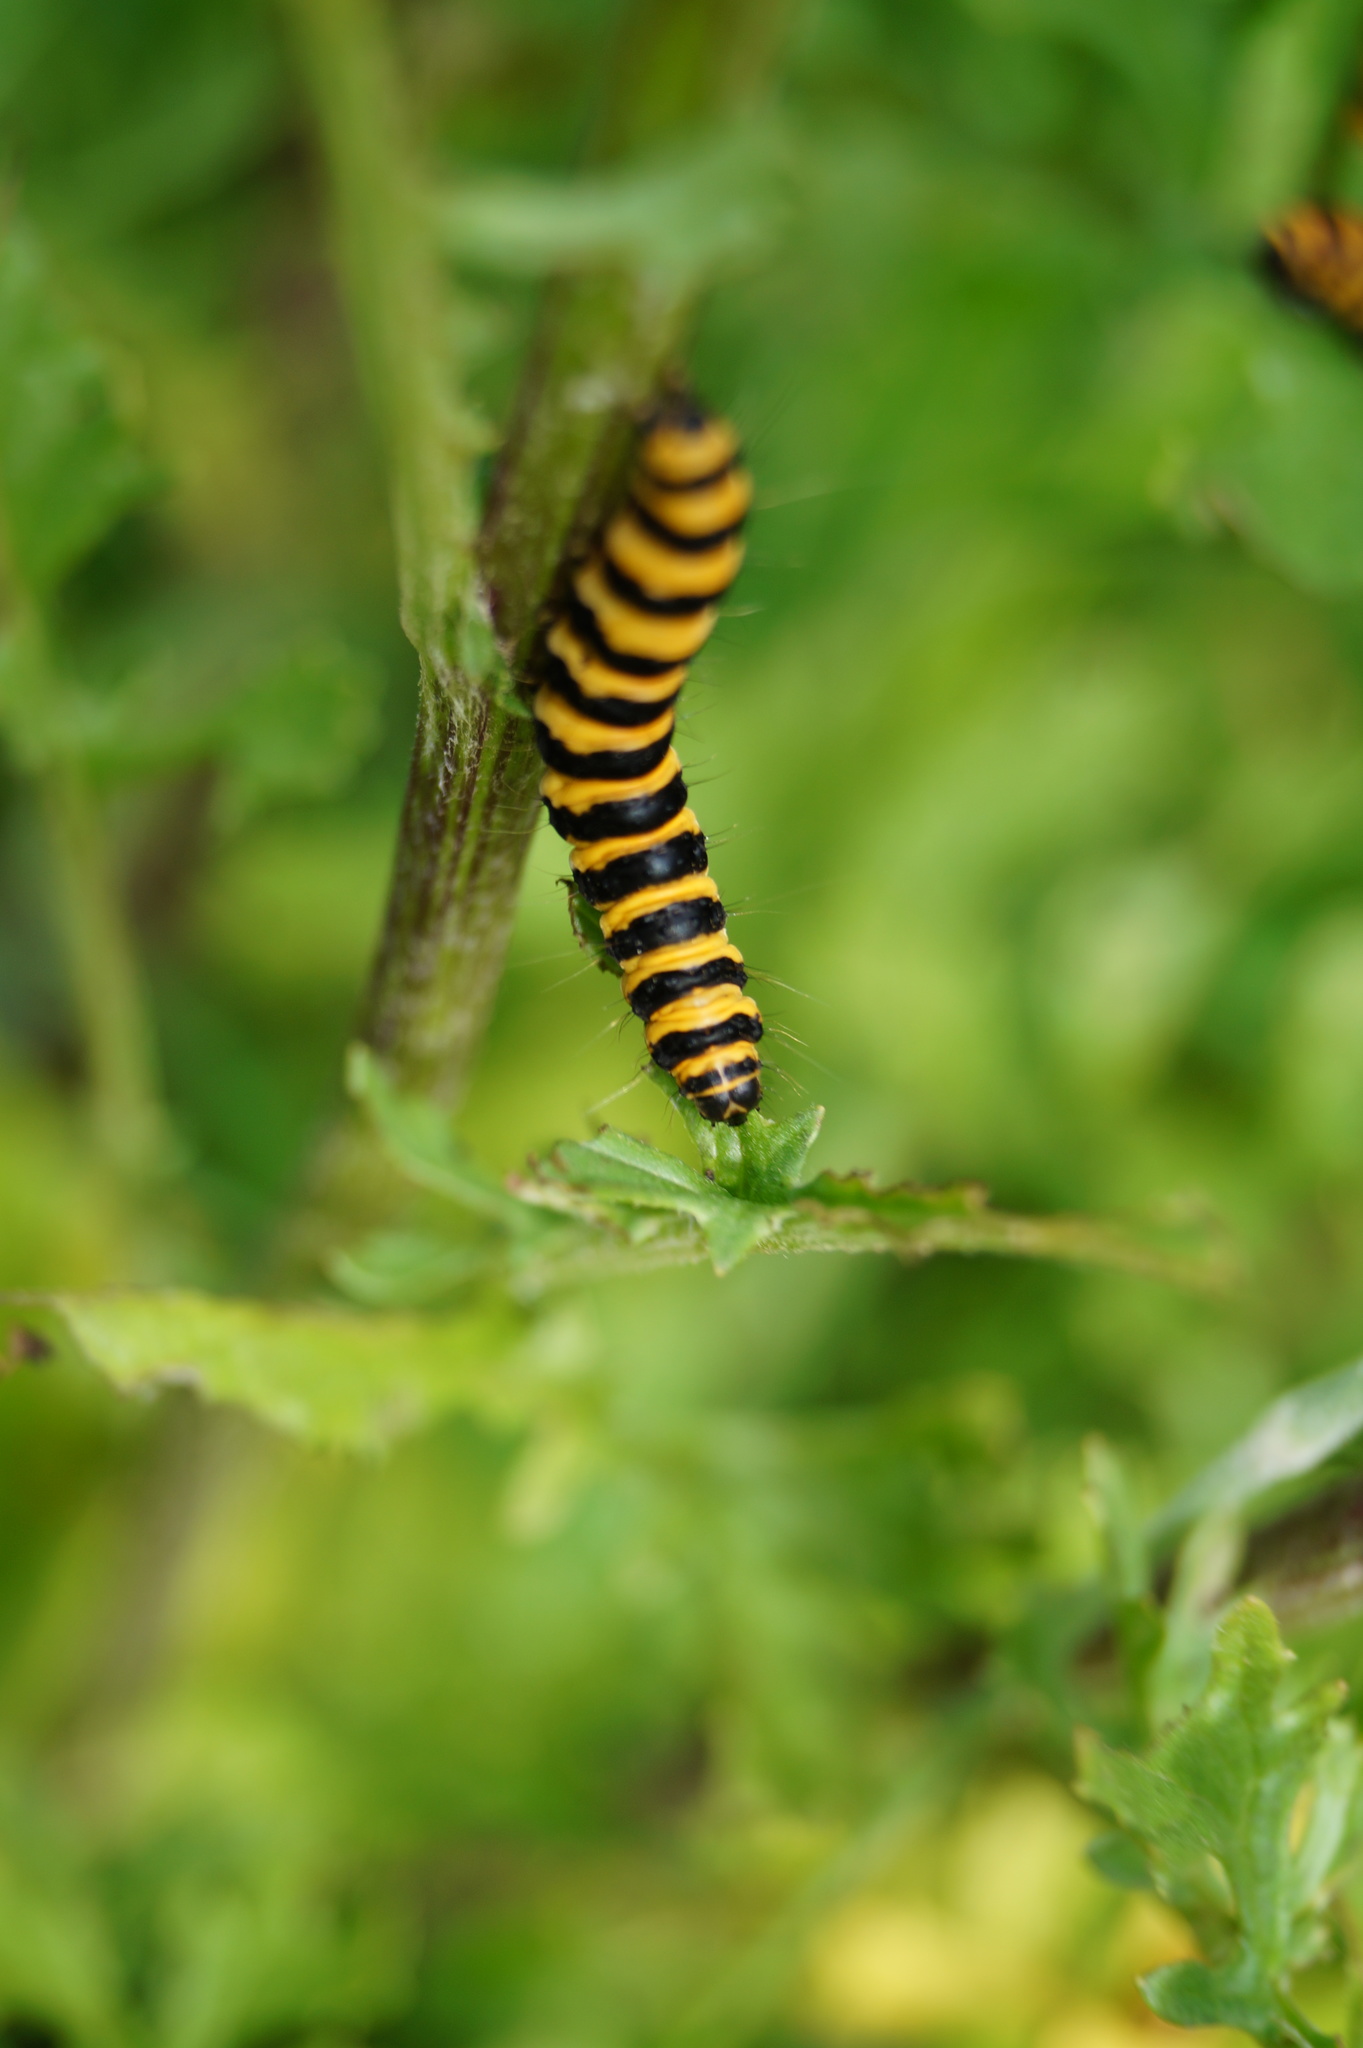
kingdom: Animalia
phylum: Arthropoda
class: Insecta
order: Lepidoptera
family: Erebidae
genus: Tyria
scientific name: Tyria jacobaeae
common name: Cinnabar
